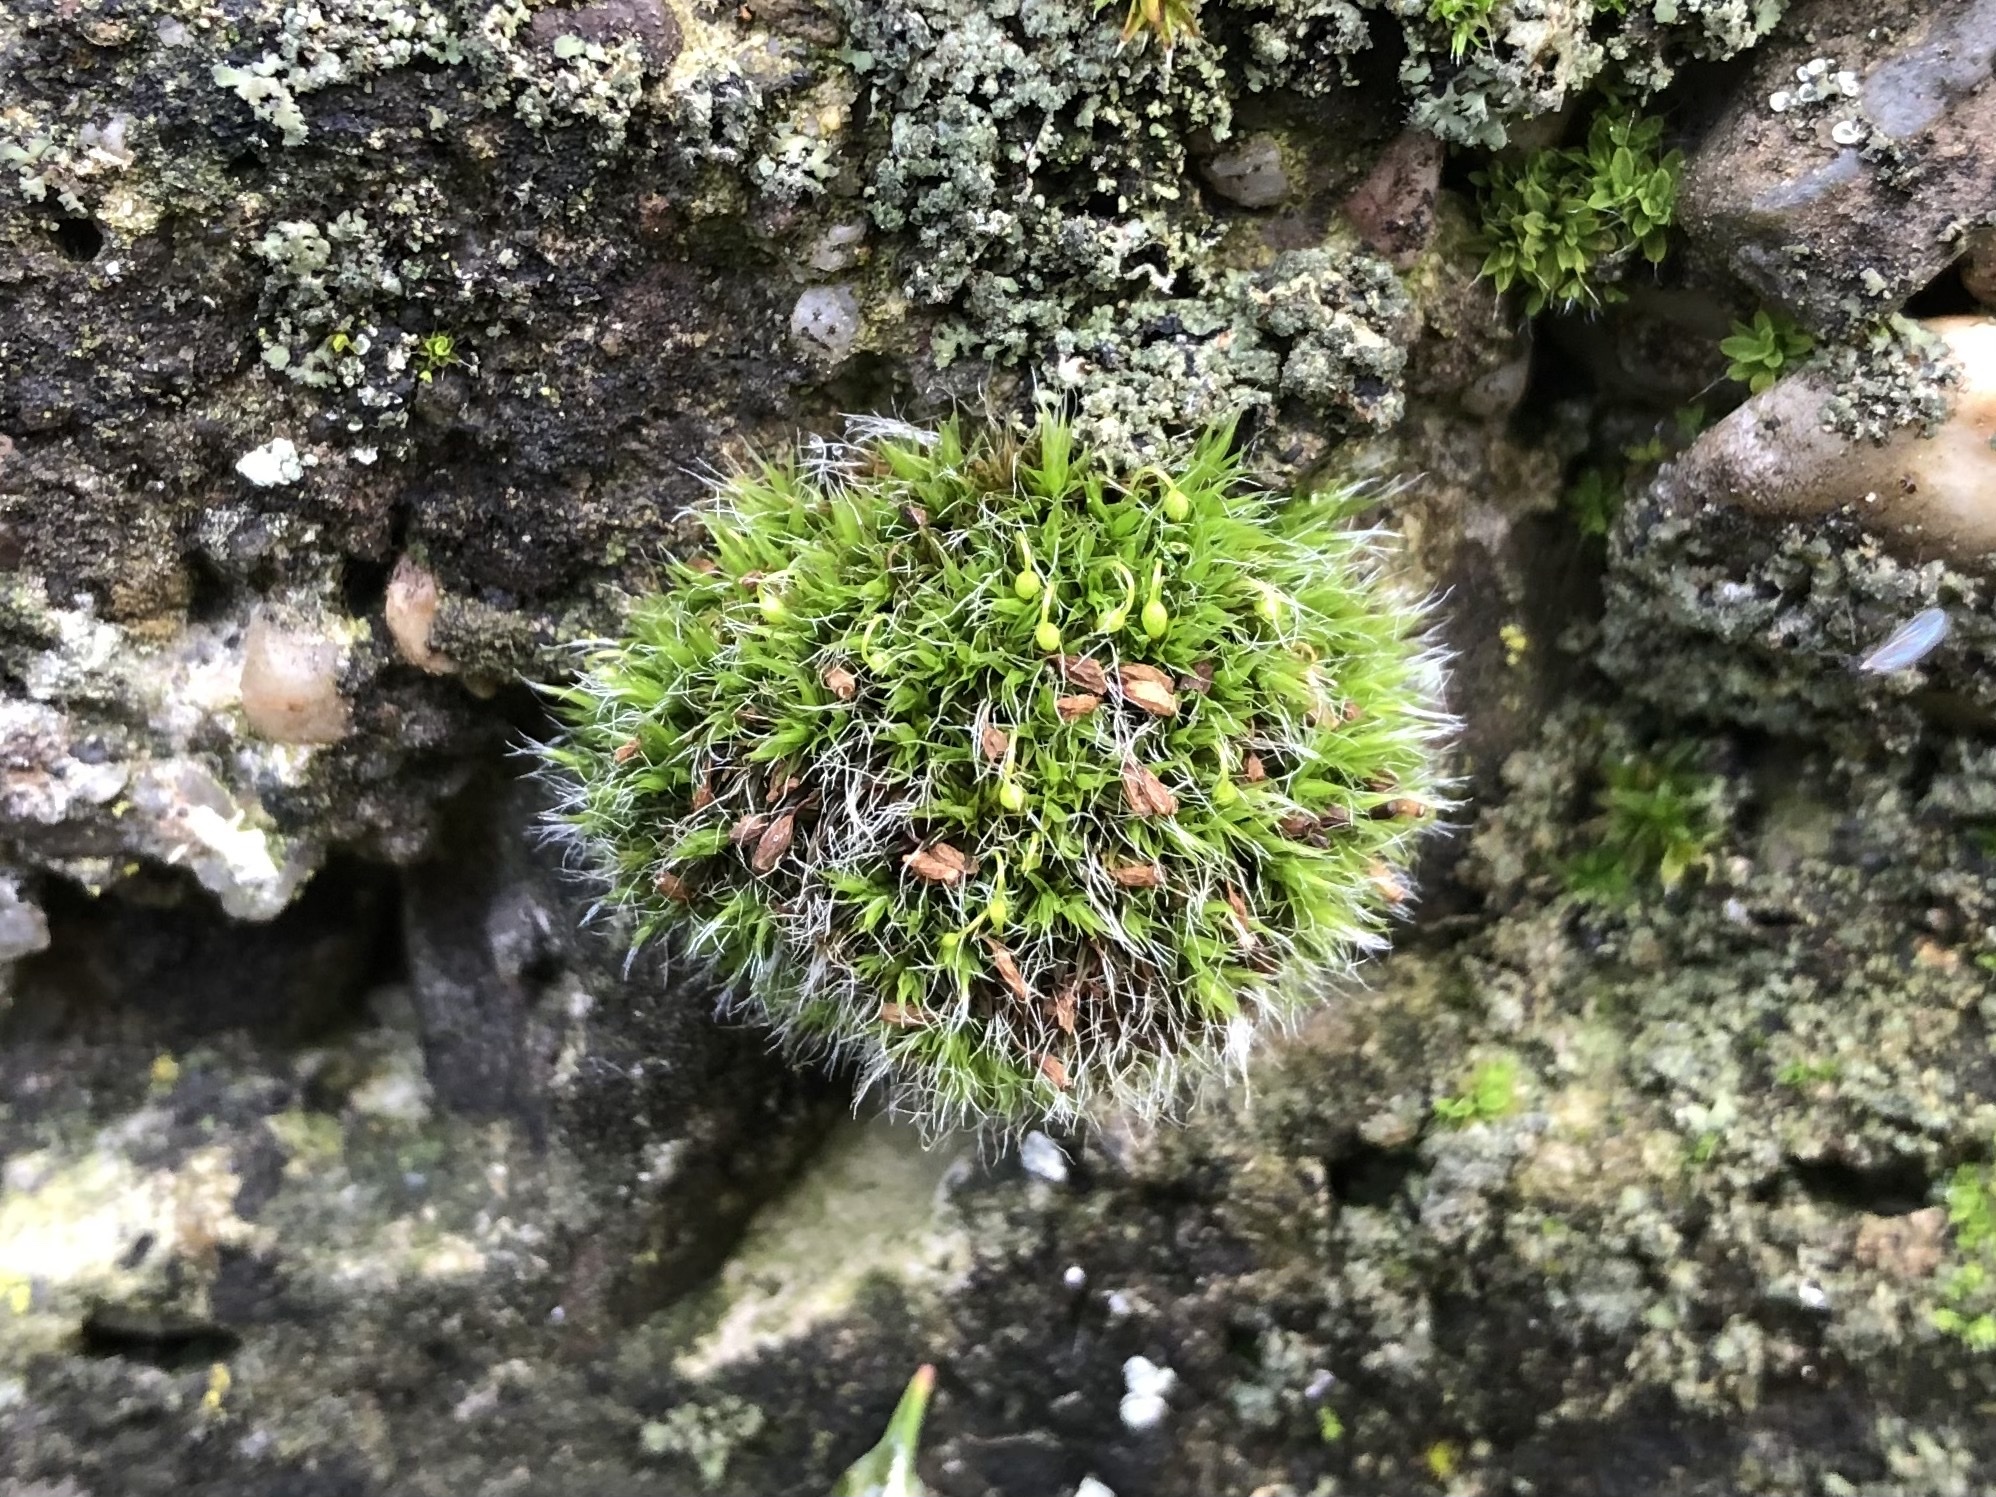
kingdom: Plantae
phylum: Bryophyta
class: Bryopsida
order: Grimmiales
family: Grimmiaceae
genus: Grimmia
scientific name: Grimmia pulvinata
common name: Grey-cushioned grimmia
